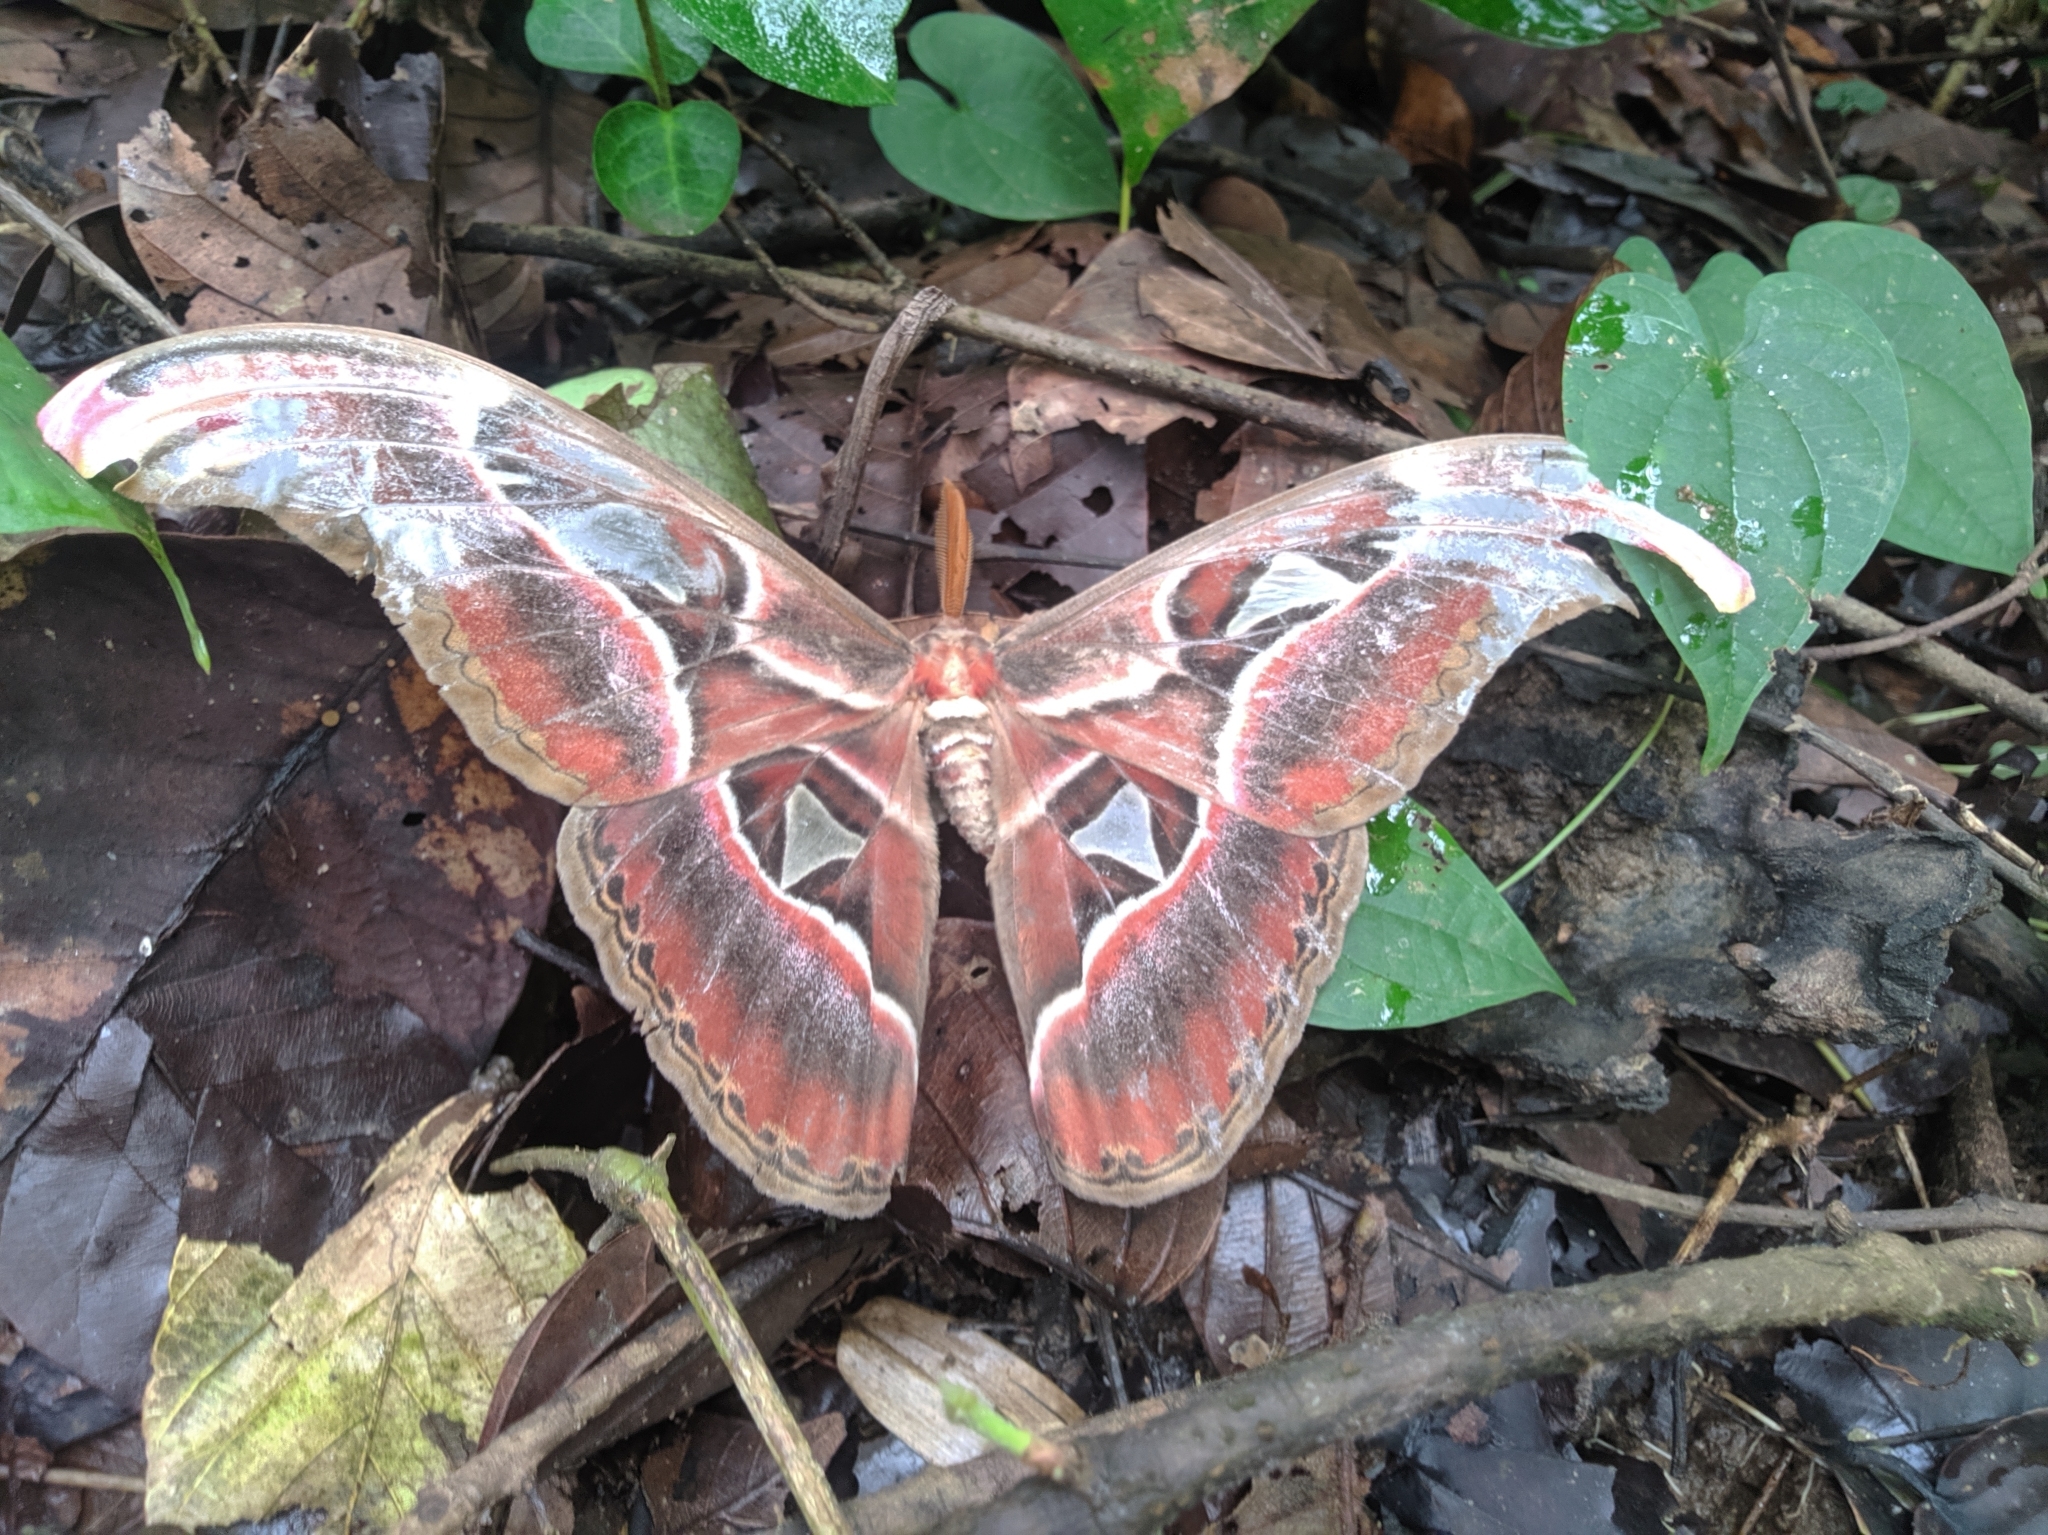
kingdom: Animalia
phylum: Arthropoda
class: Insecta
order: Lepidoptera
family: Saturniidae
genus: Attacus
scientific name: Attacus atlas
